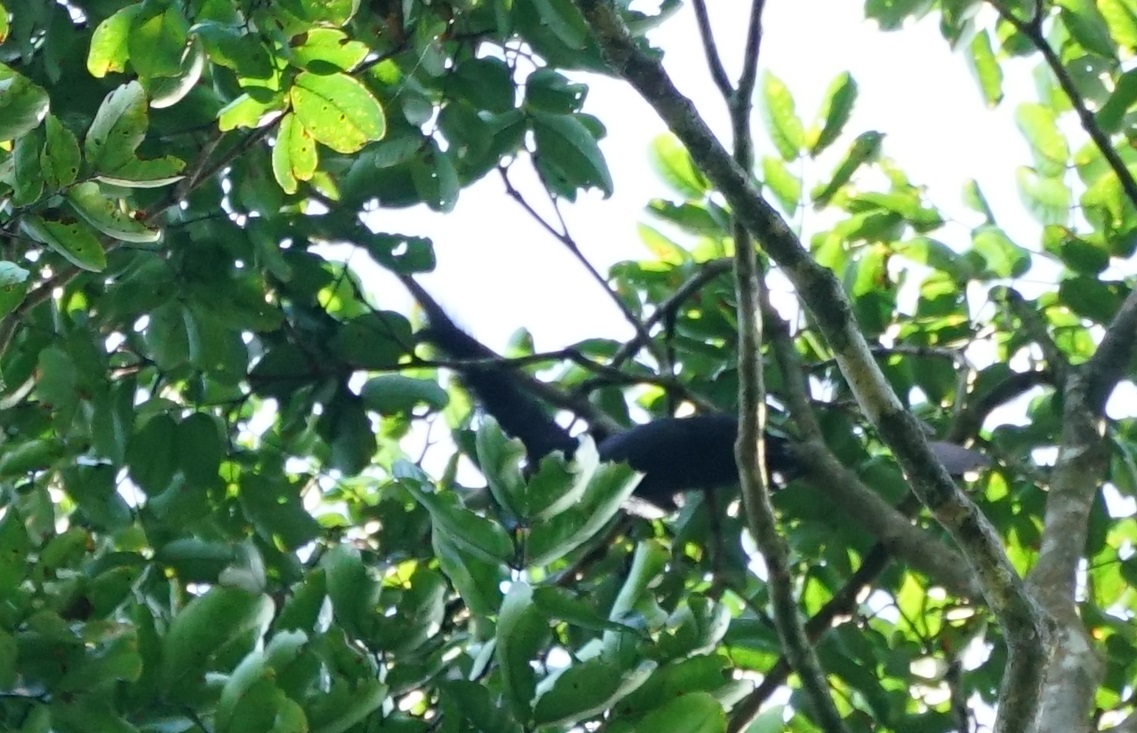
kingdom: Animalia
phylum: Chordata
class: Mammalia
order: Rodentia
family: Sciuridae
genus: Callosciurus
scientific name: Callosciurus prevostii
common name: Prevost's squirrel
